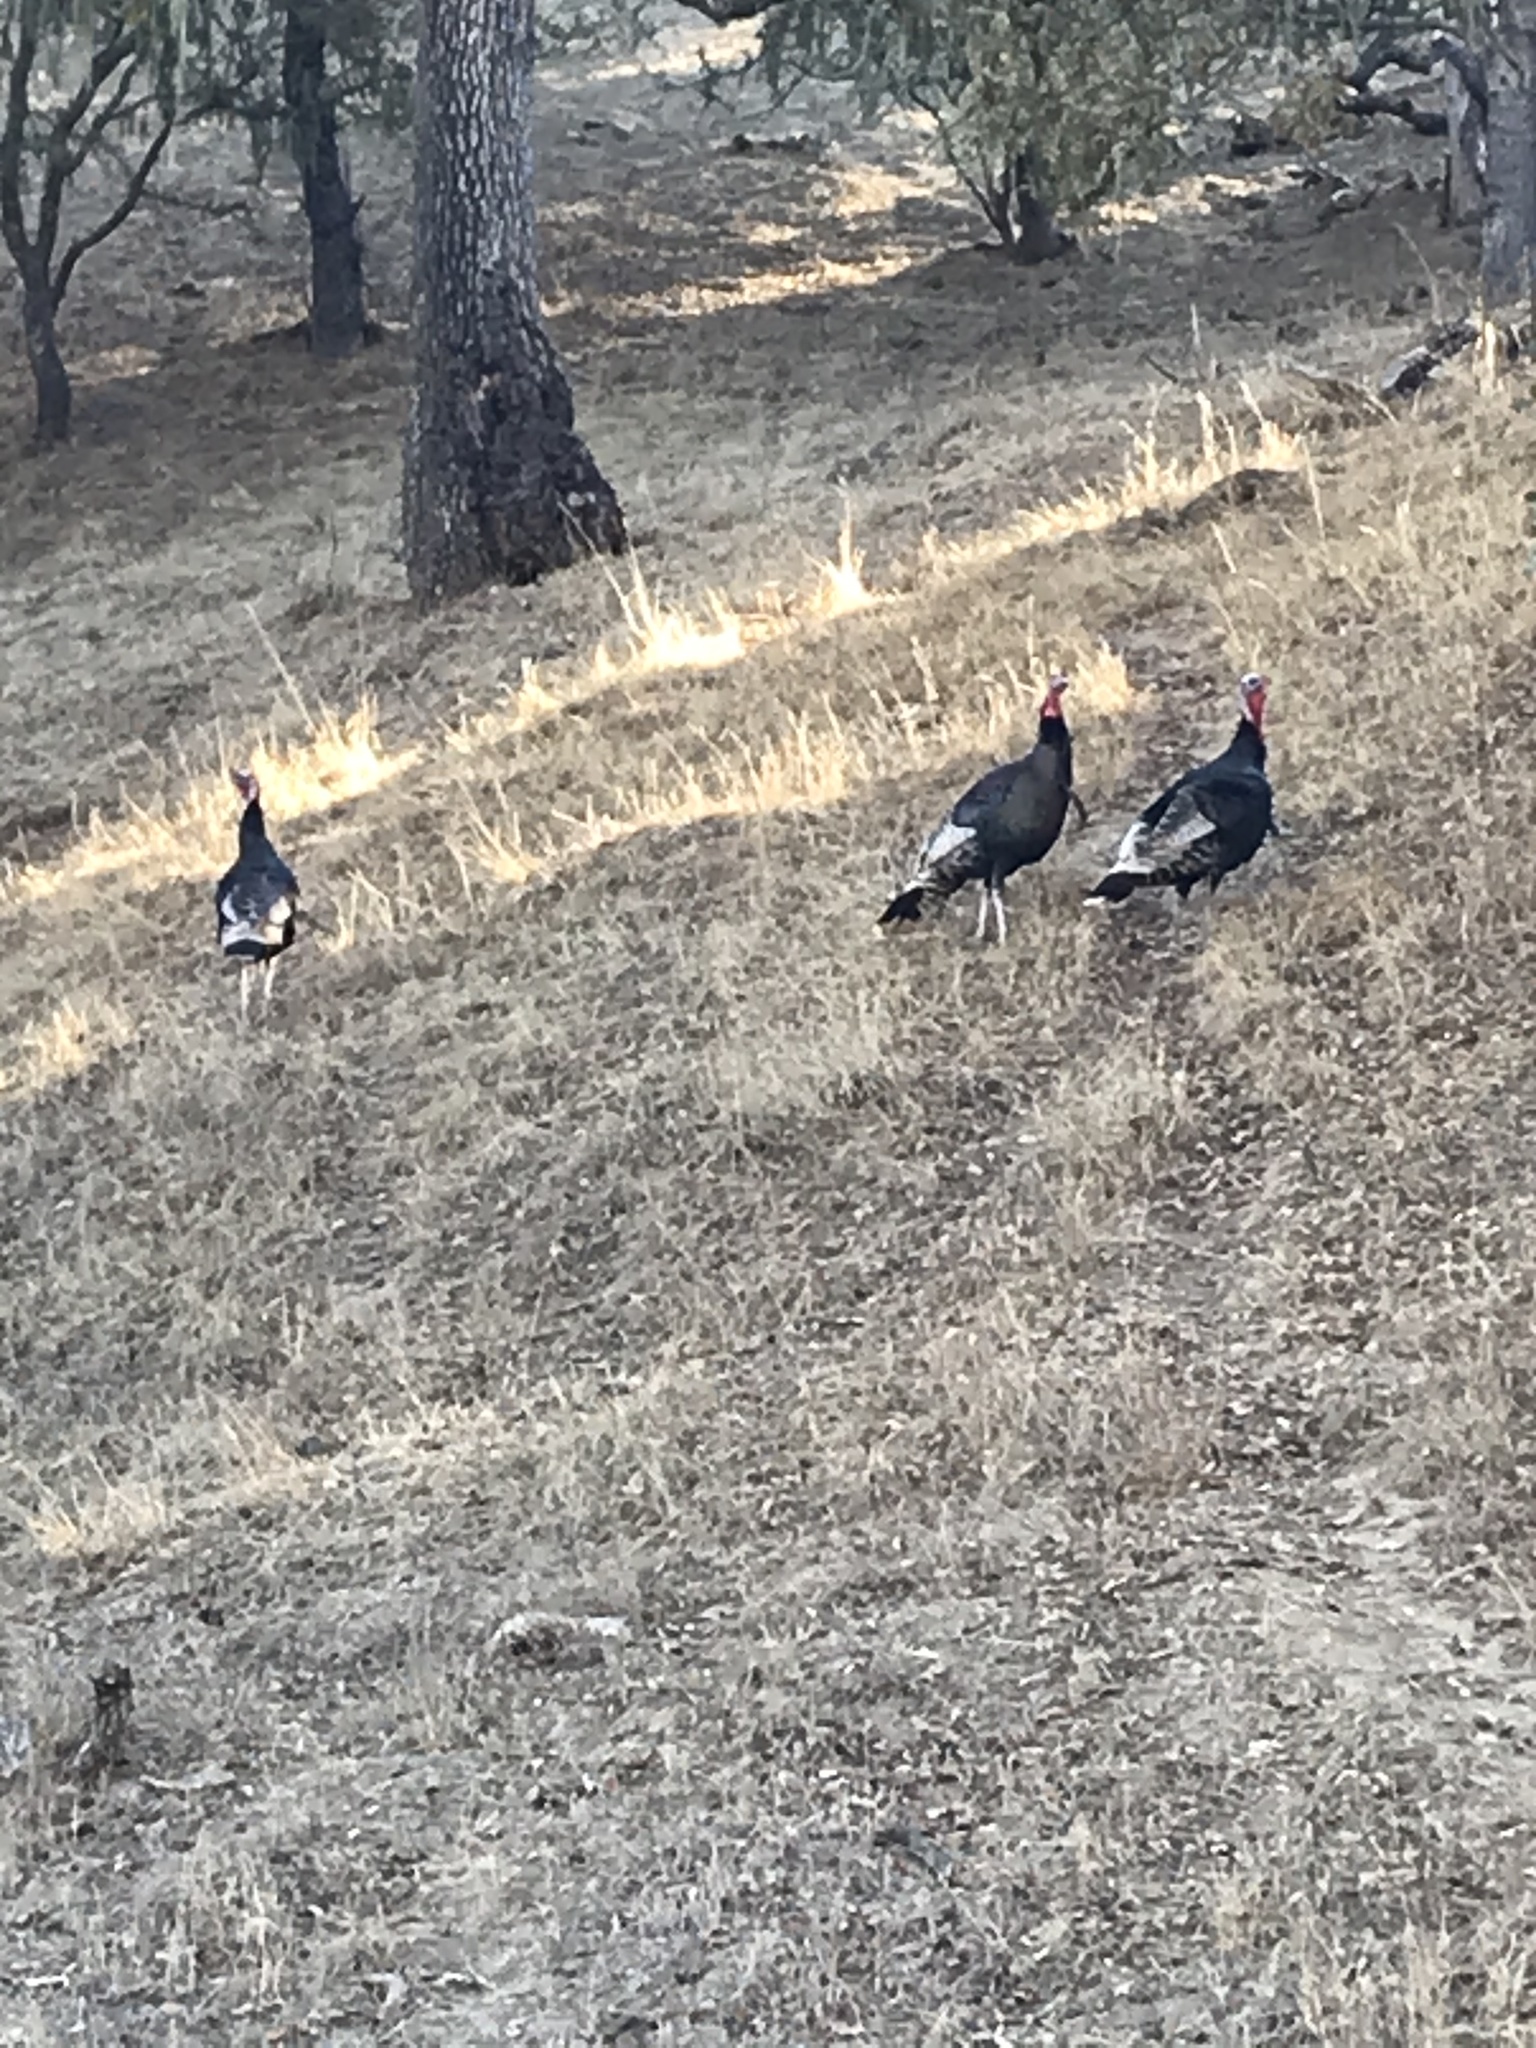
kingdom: Animalia
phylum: Chordata
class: Aves
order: Galliformes
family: Phasianidae
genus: Meleagris
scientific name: Meleagris gallopavo
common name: Wild turkey
